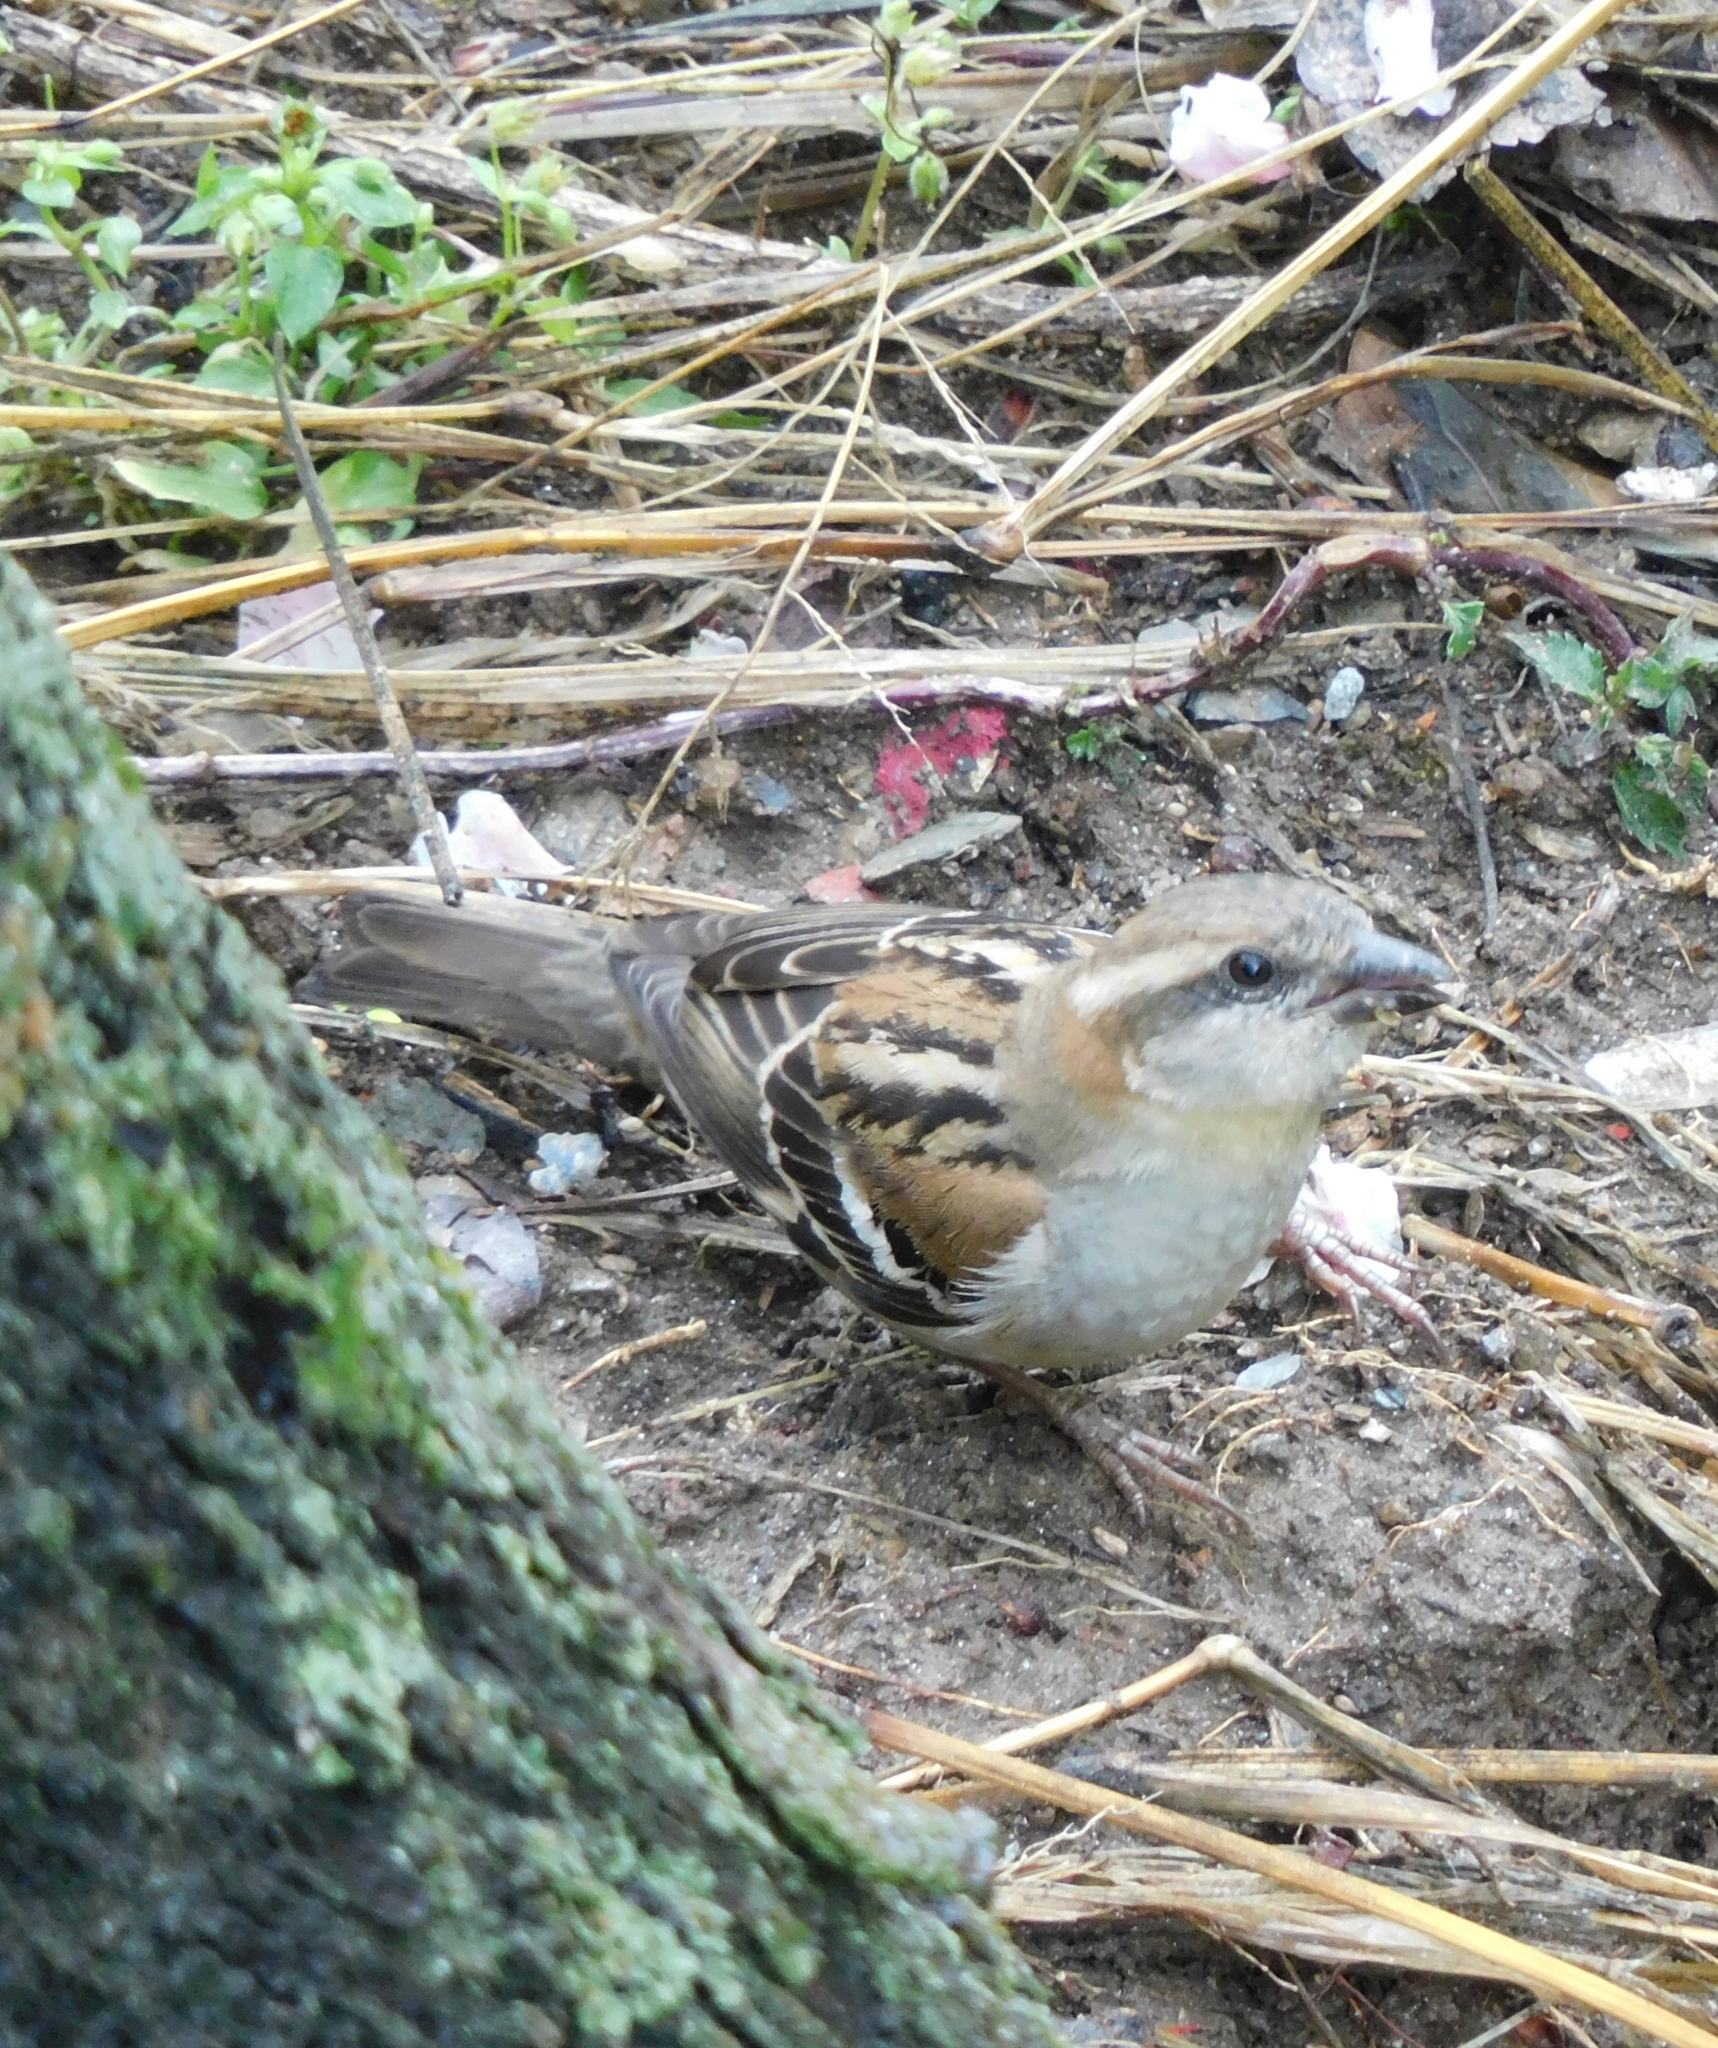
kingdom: Animalia
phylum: Chordata
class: Aves
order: Passeriformes
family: Passeridae
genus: Passer
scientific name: Passer cinnamomeus
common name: Russet sparrow
